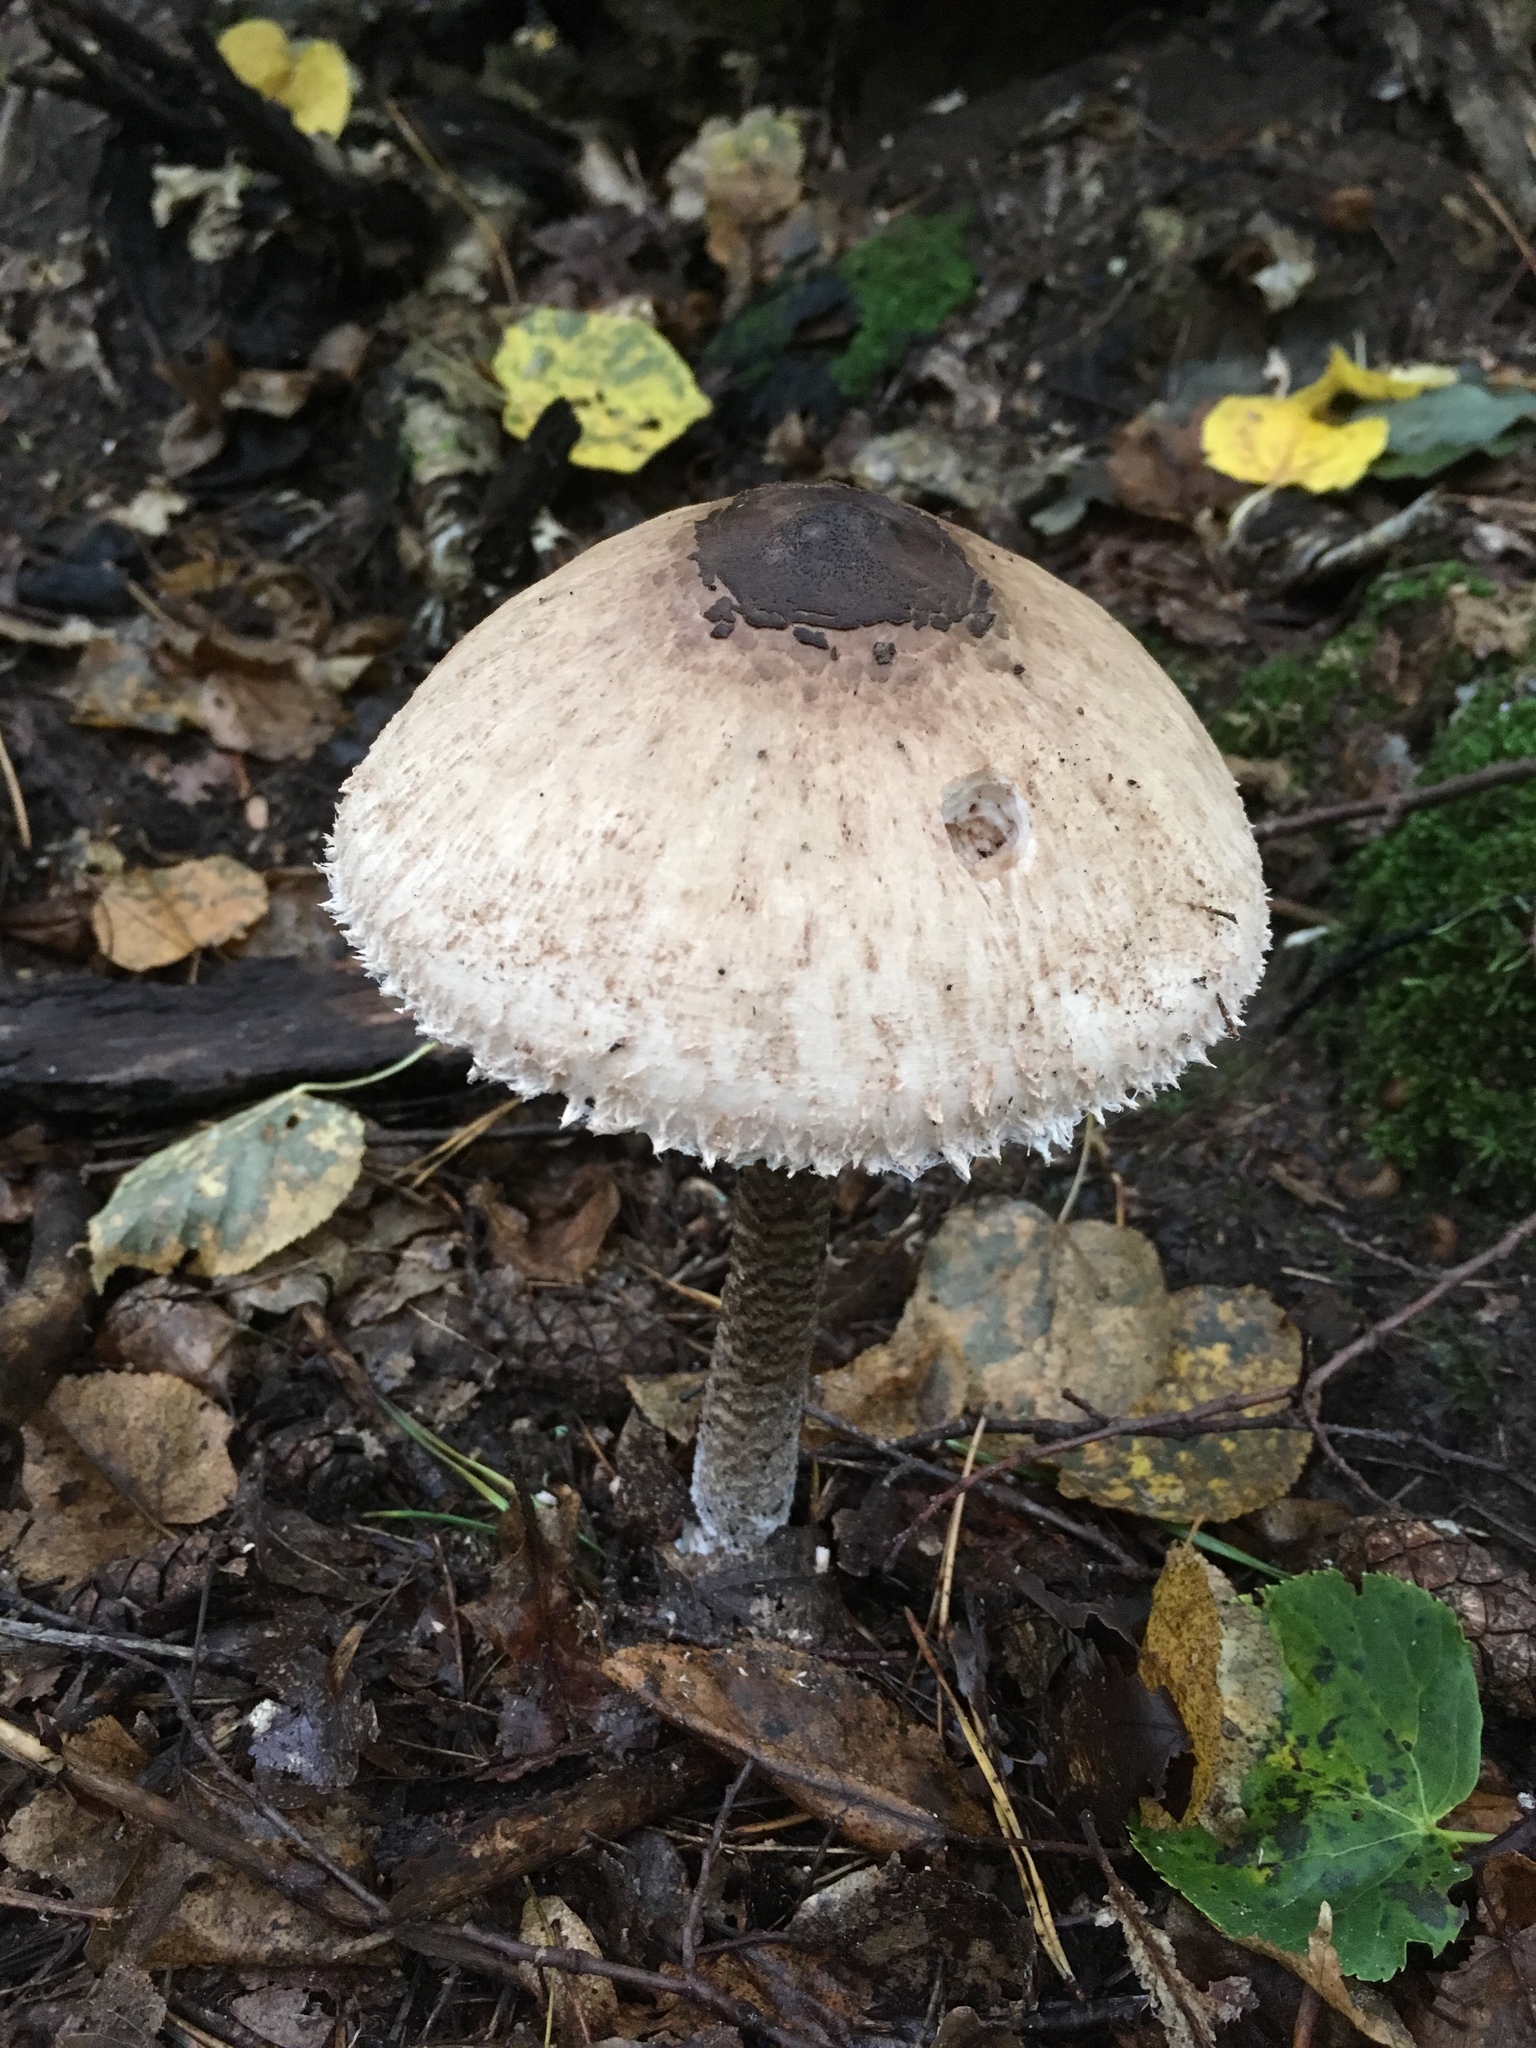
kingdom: Fungi
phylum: Basidiomycota
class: Agaricomycetes
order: Agaricales
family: Agaricaceae
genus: Macrolepiota
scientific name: Macrolepiota procera
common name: Parasol
